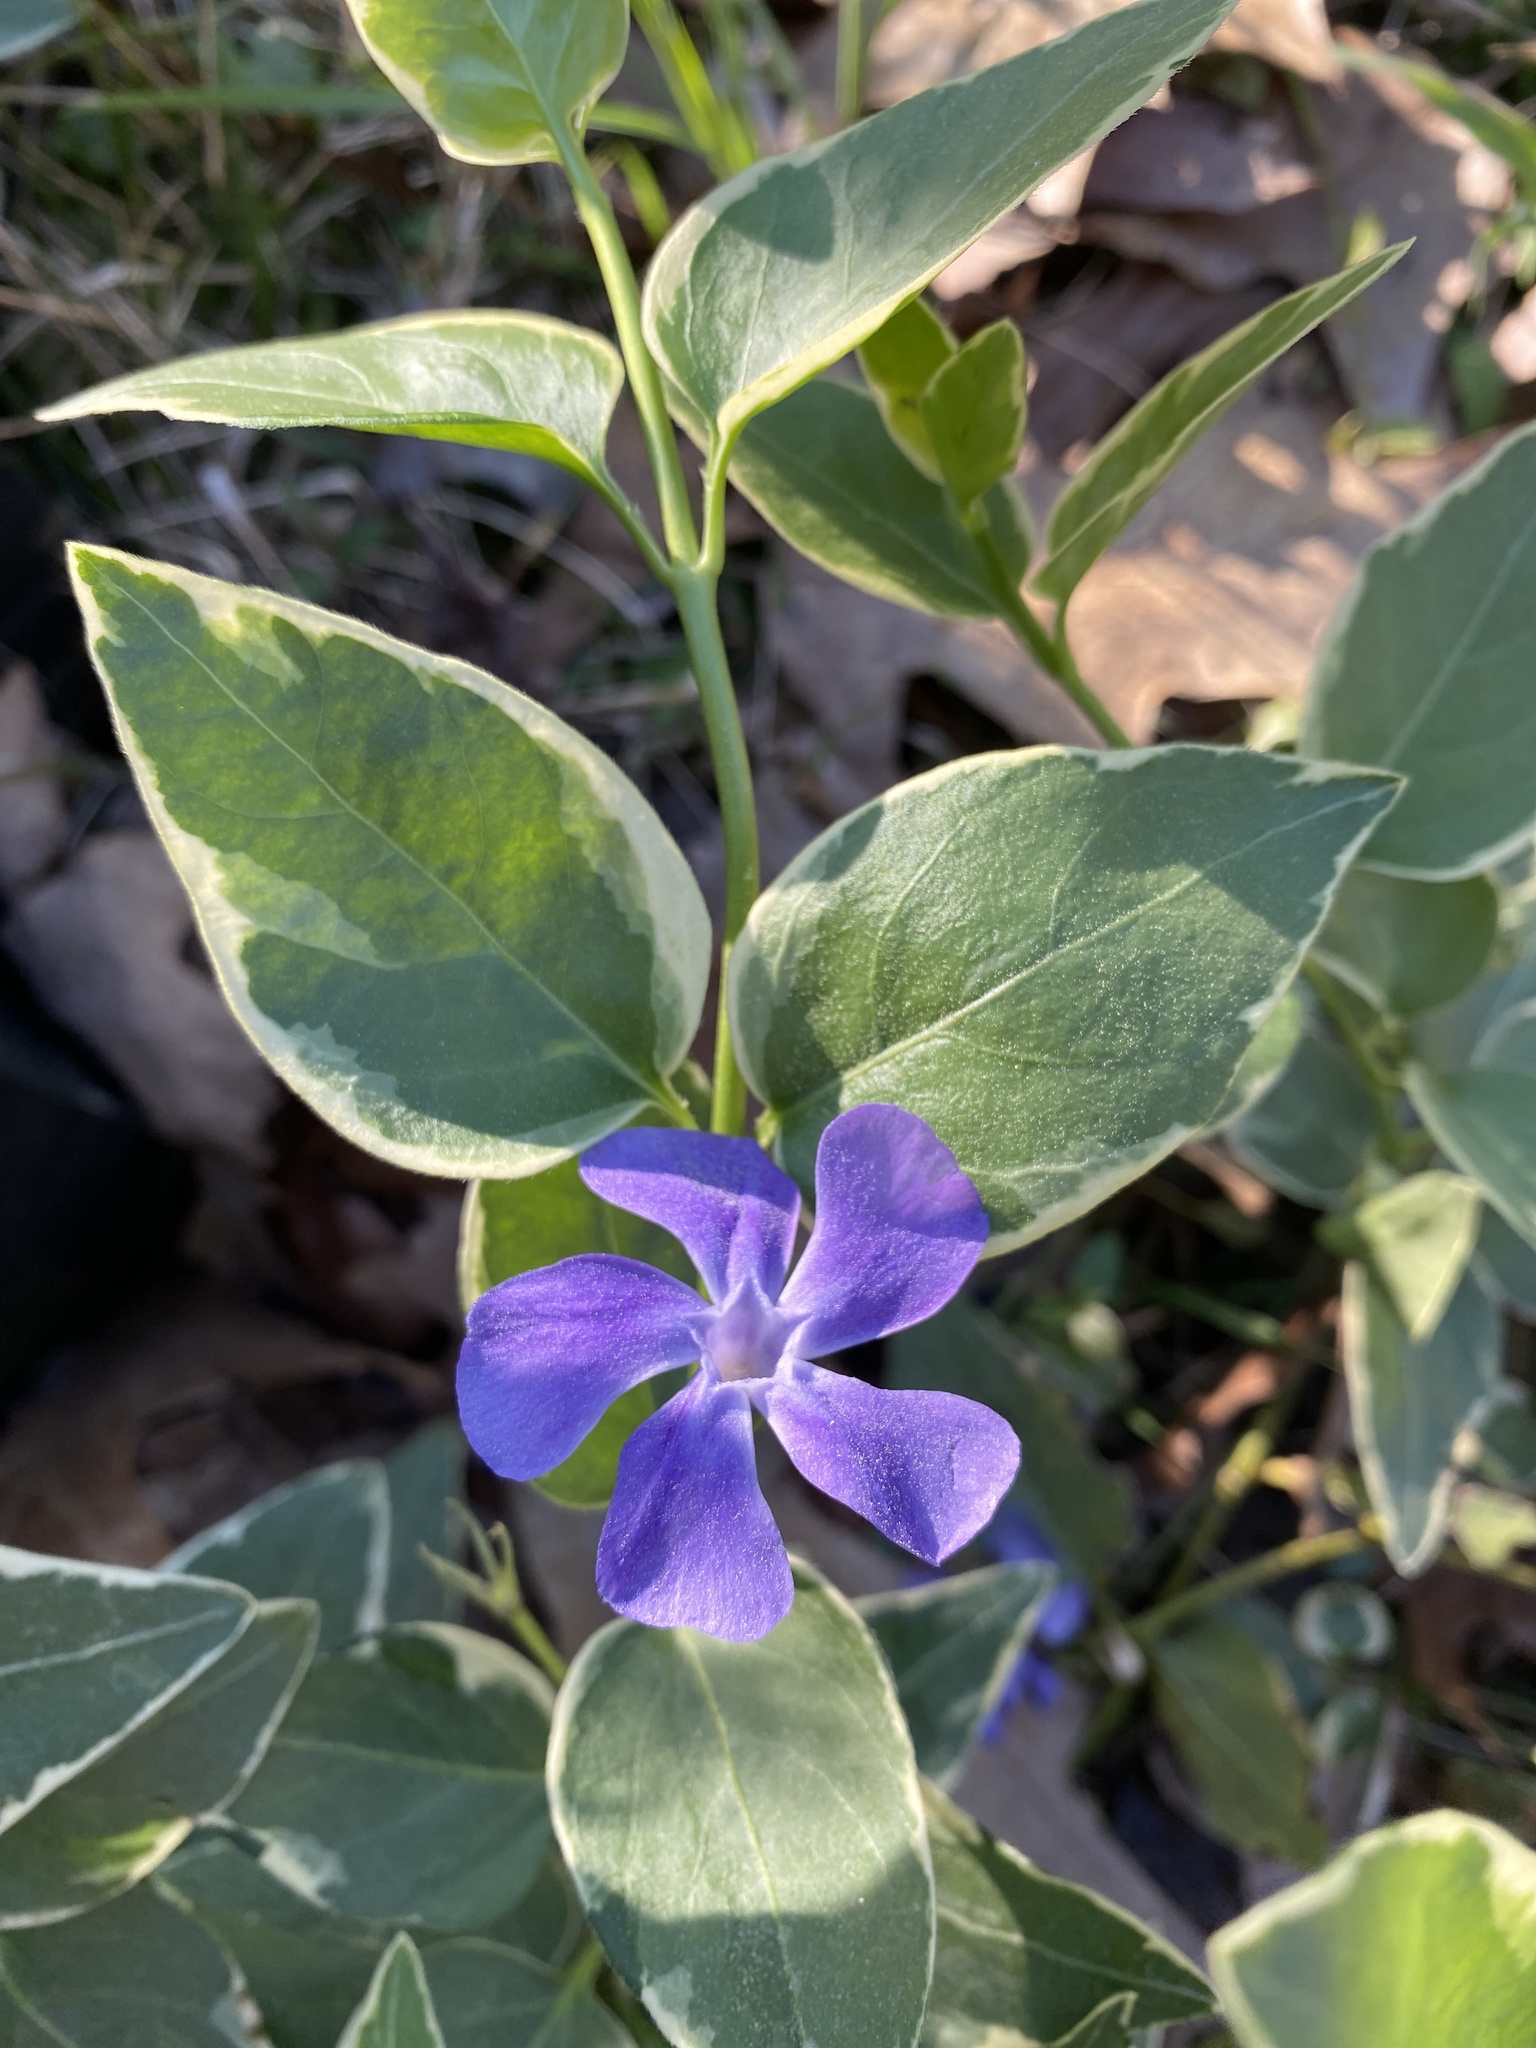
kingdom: Plantae
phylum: Tracheophyta
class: Magnoliopsida
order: Gentianales
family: Apocynaceae
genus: Vinca
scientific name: Vinca major
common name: Greater periwinkle
